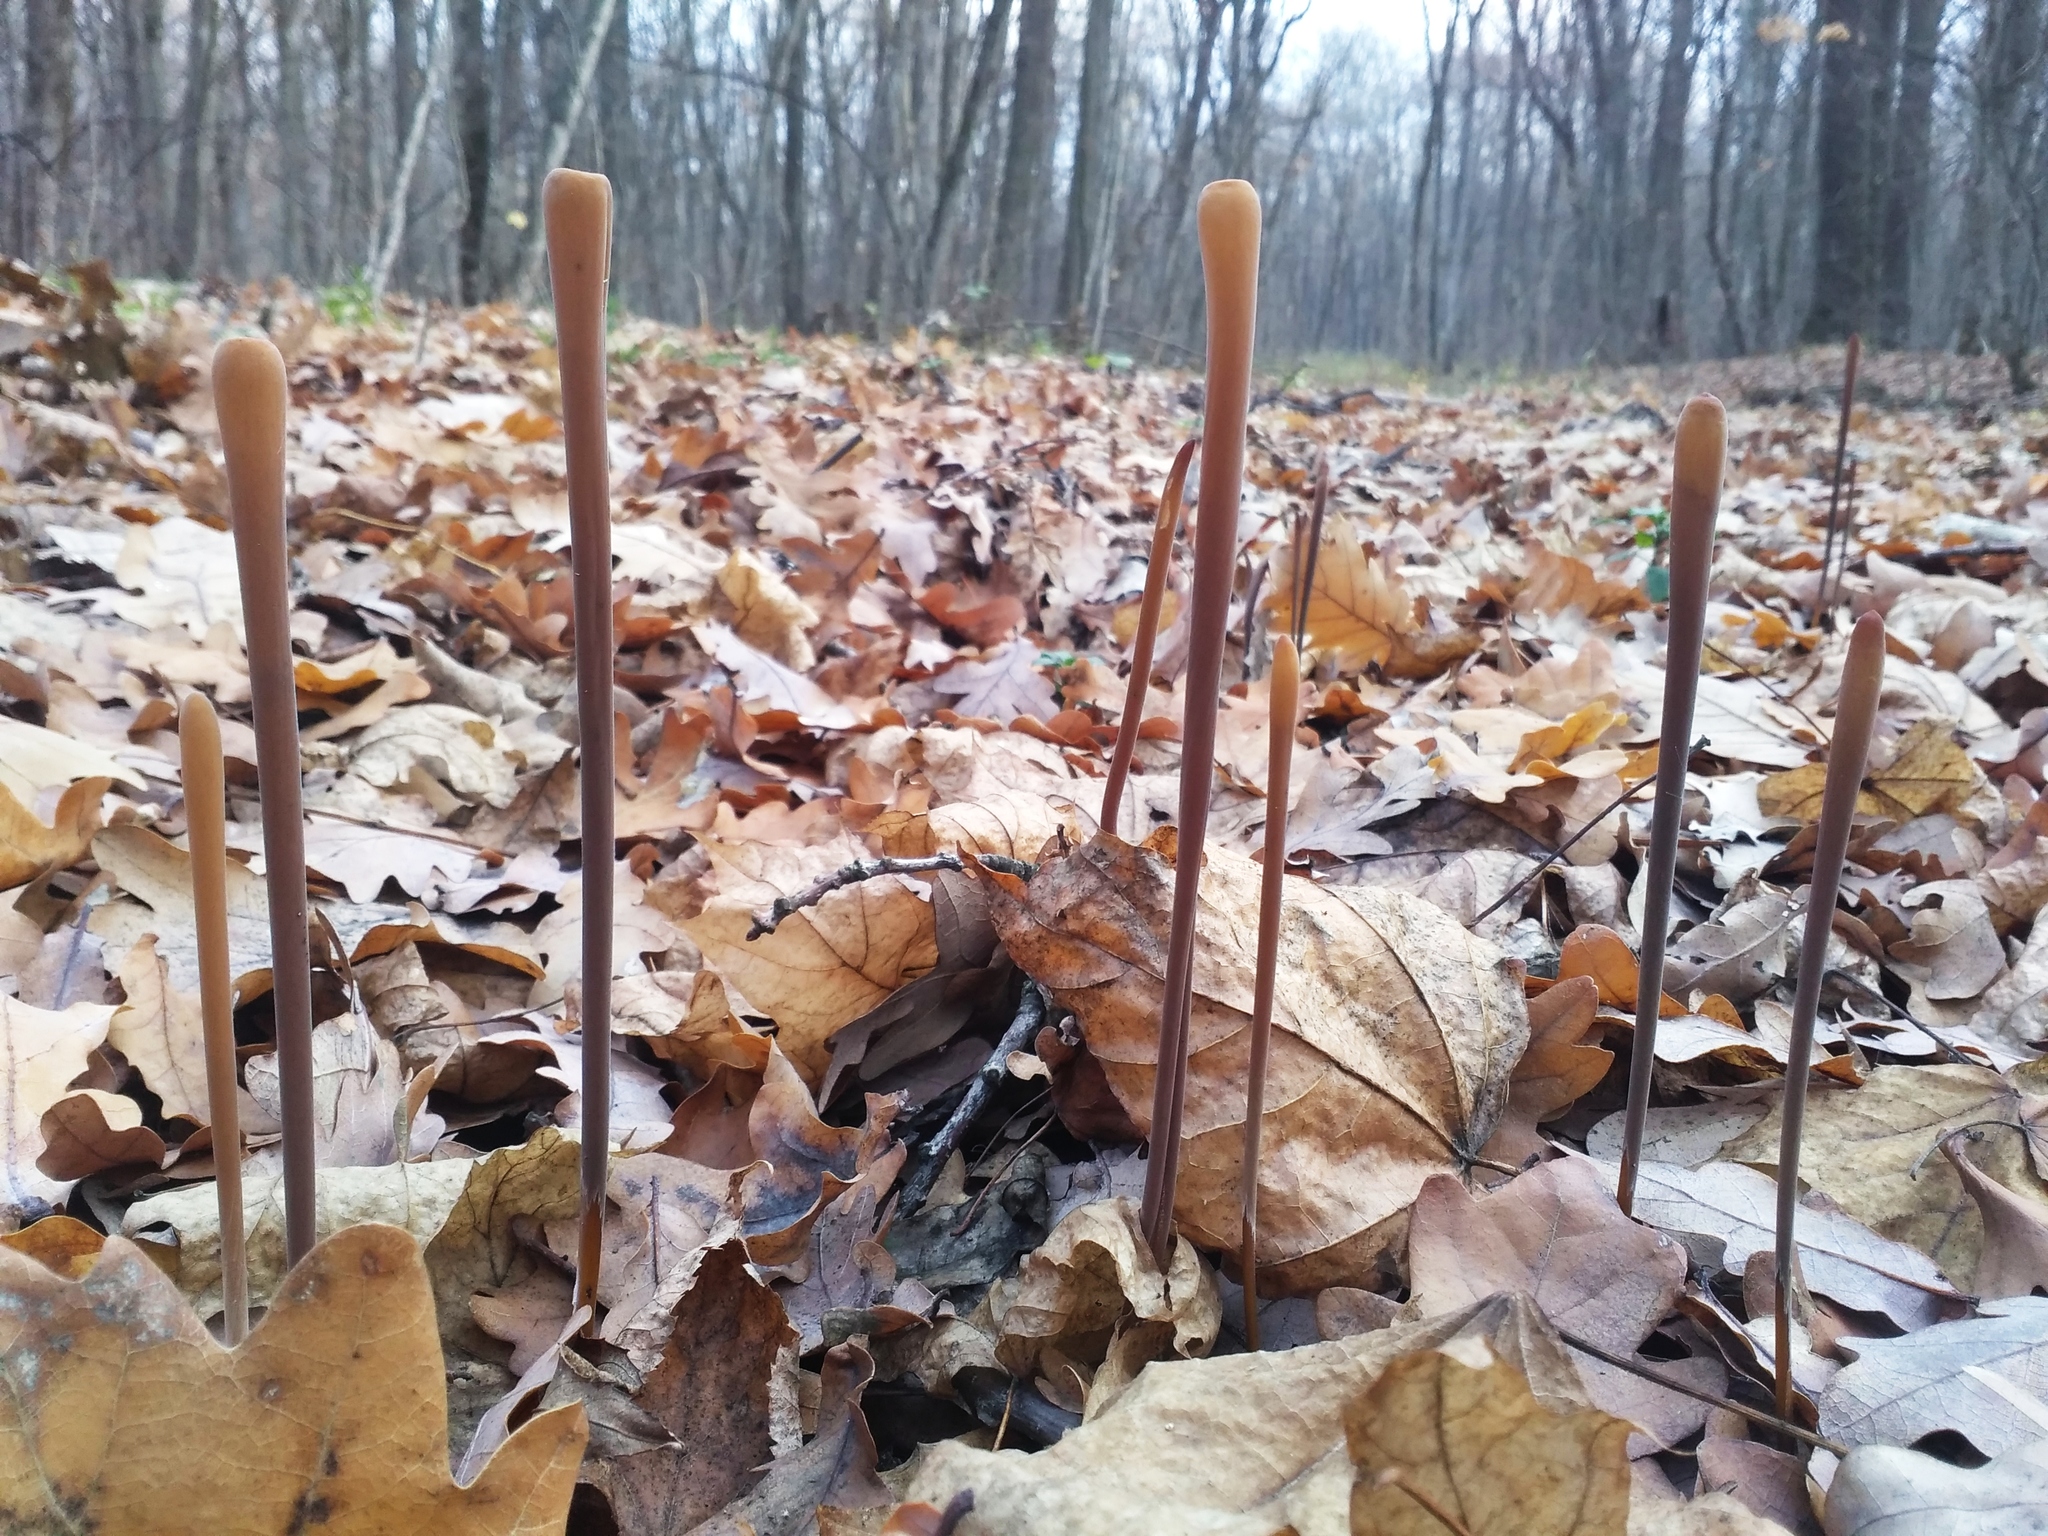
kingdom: Fungi
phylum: Basidiomycota
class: Agaricomycetes
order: Agaricales
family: Typhulaceae
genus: Typhula
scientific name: Typhula fistulosa
